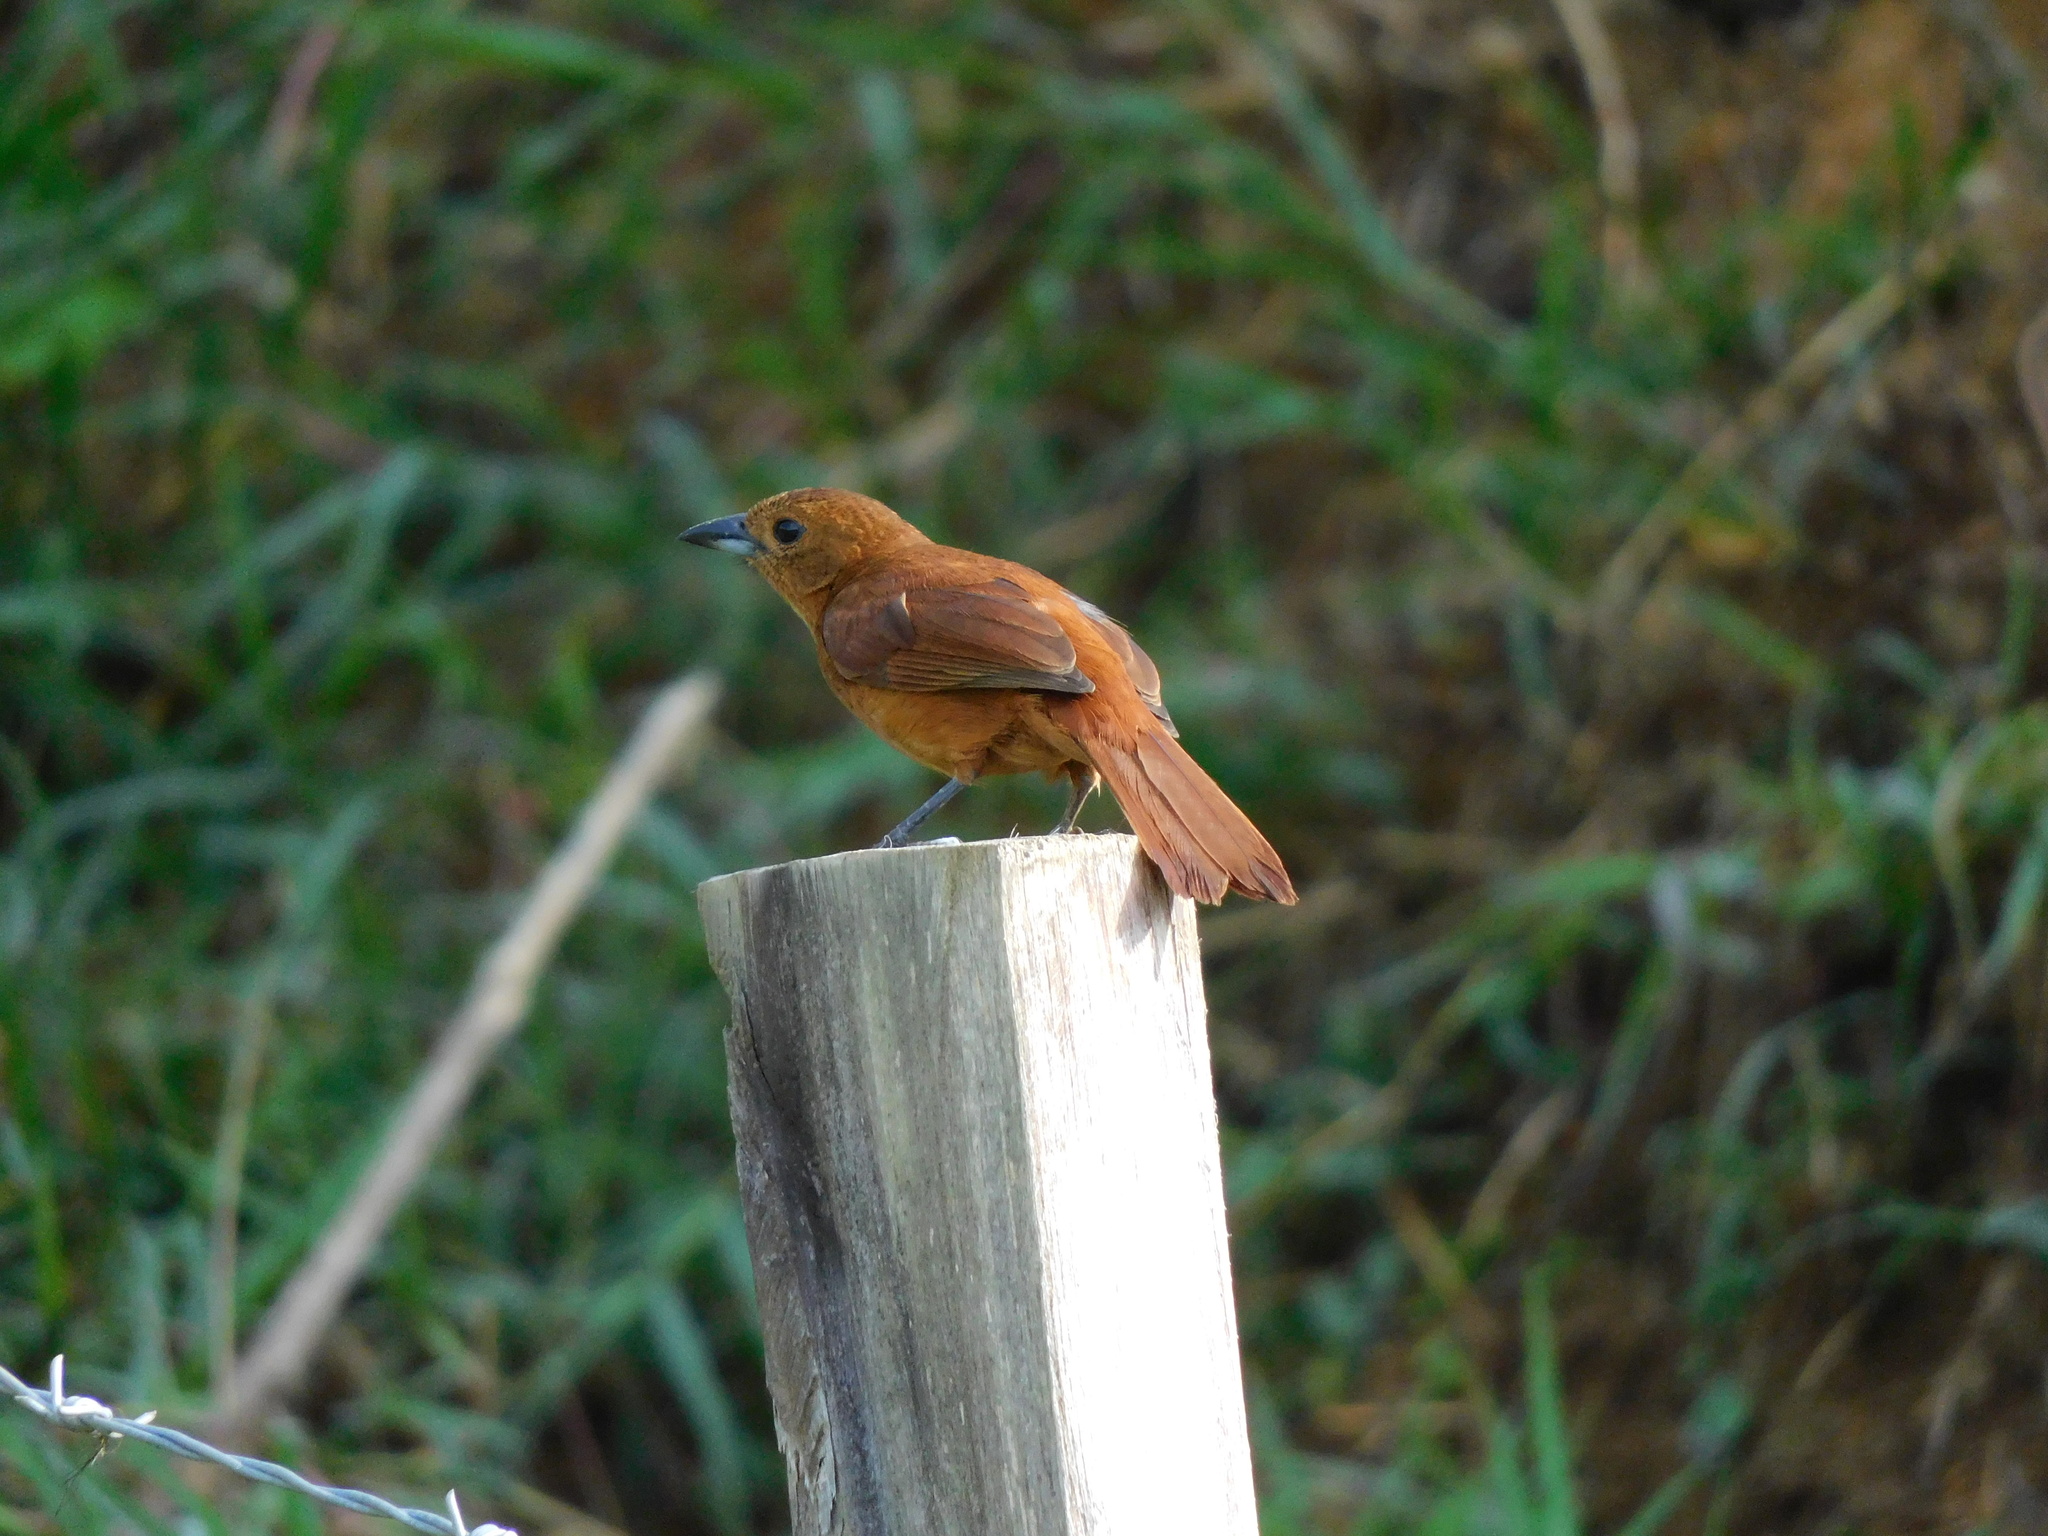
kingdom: Animalia
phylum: Chordata
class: Aves
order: Passeriformes
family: Thraupidae
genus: Tachyphonus
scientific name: Tachyphonus rufus
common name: White-lined tanager
